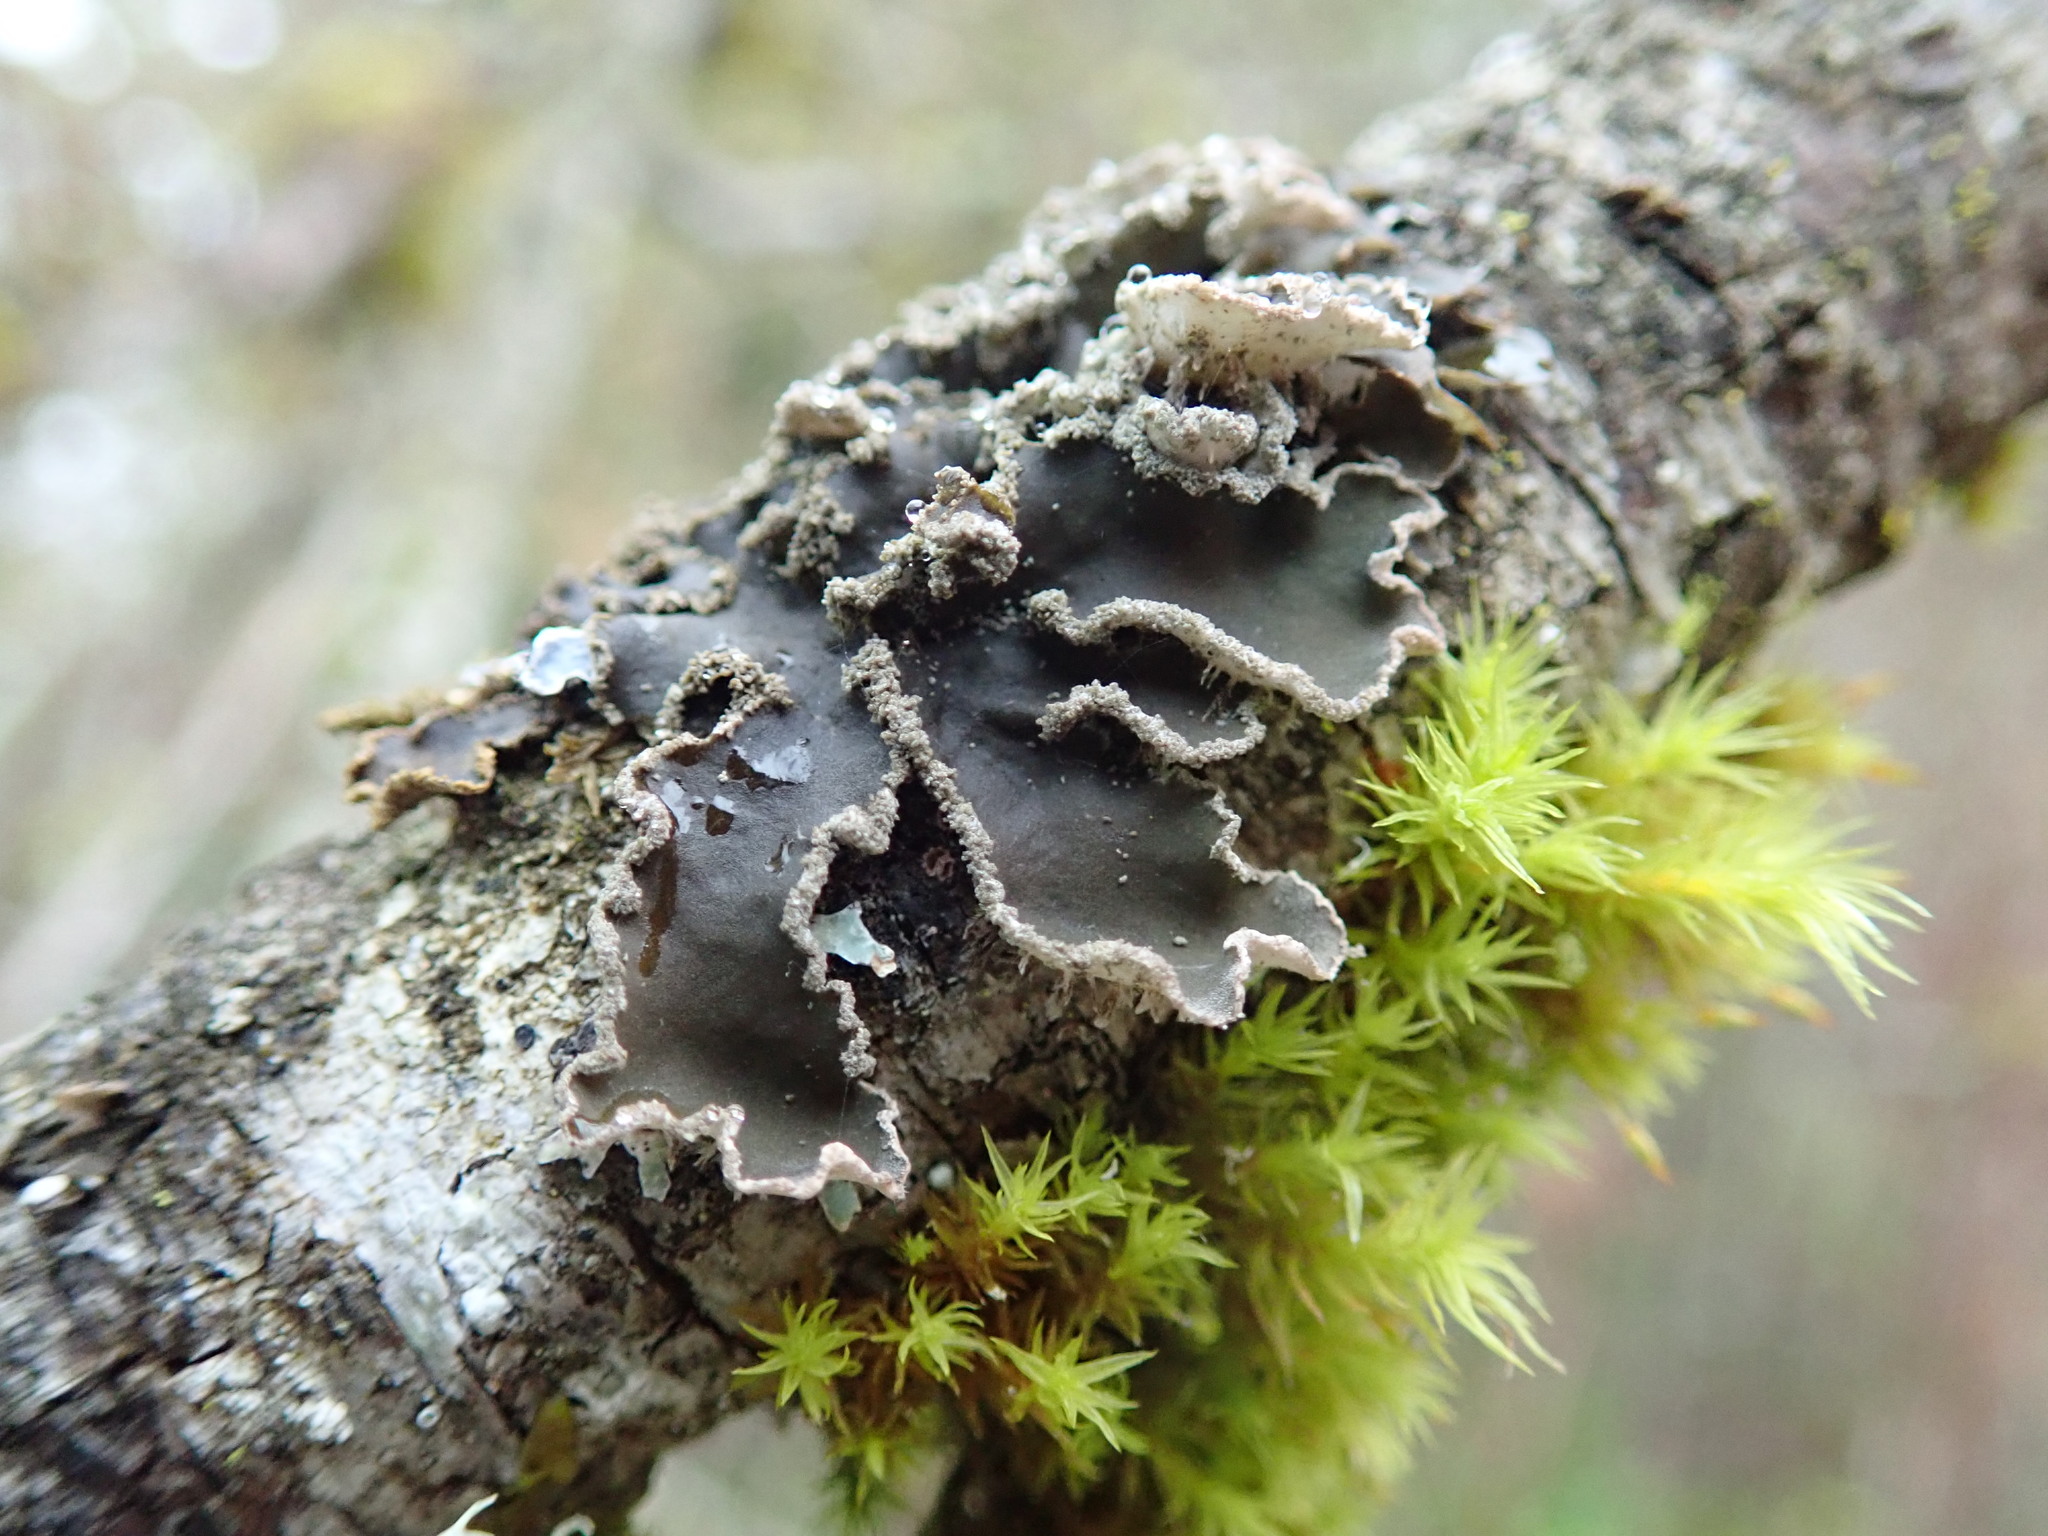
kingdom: Fungi
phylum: Ascomycota
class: Lecanoromycetes
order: Peltigerales
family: Peltigeraceae
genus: Peltigera
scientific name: Peltigera collina
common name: Gritty tree pelt lichen
